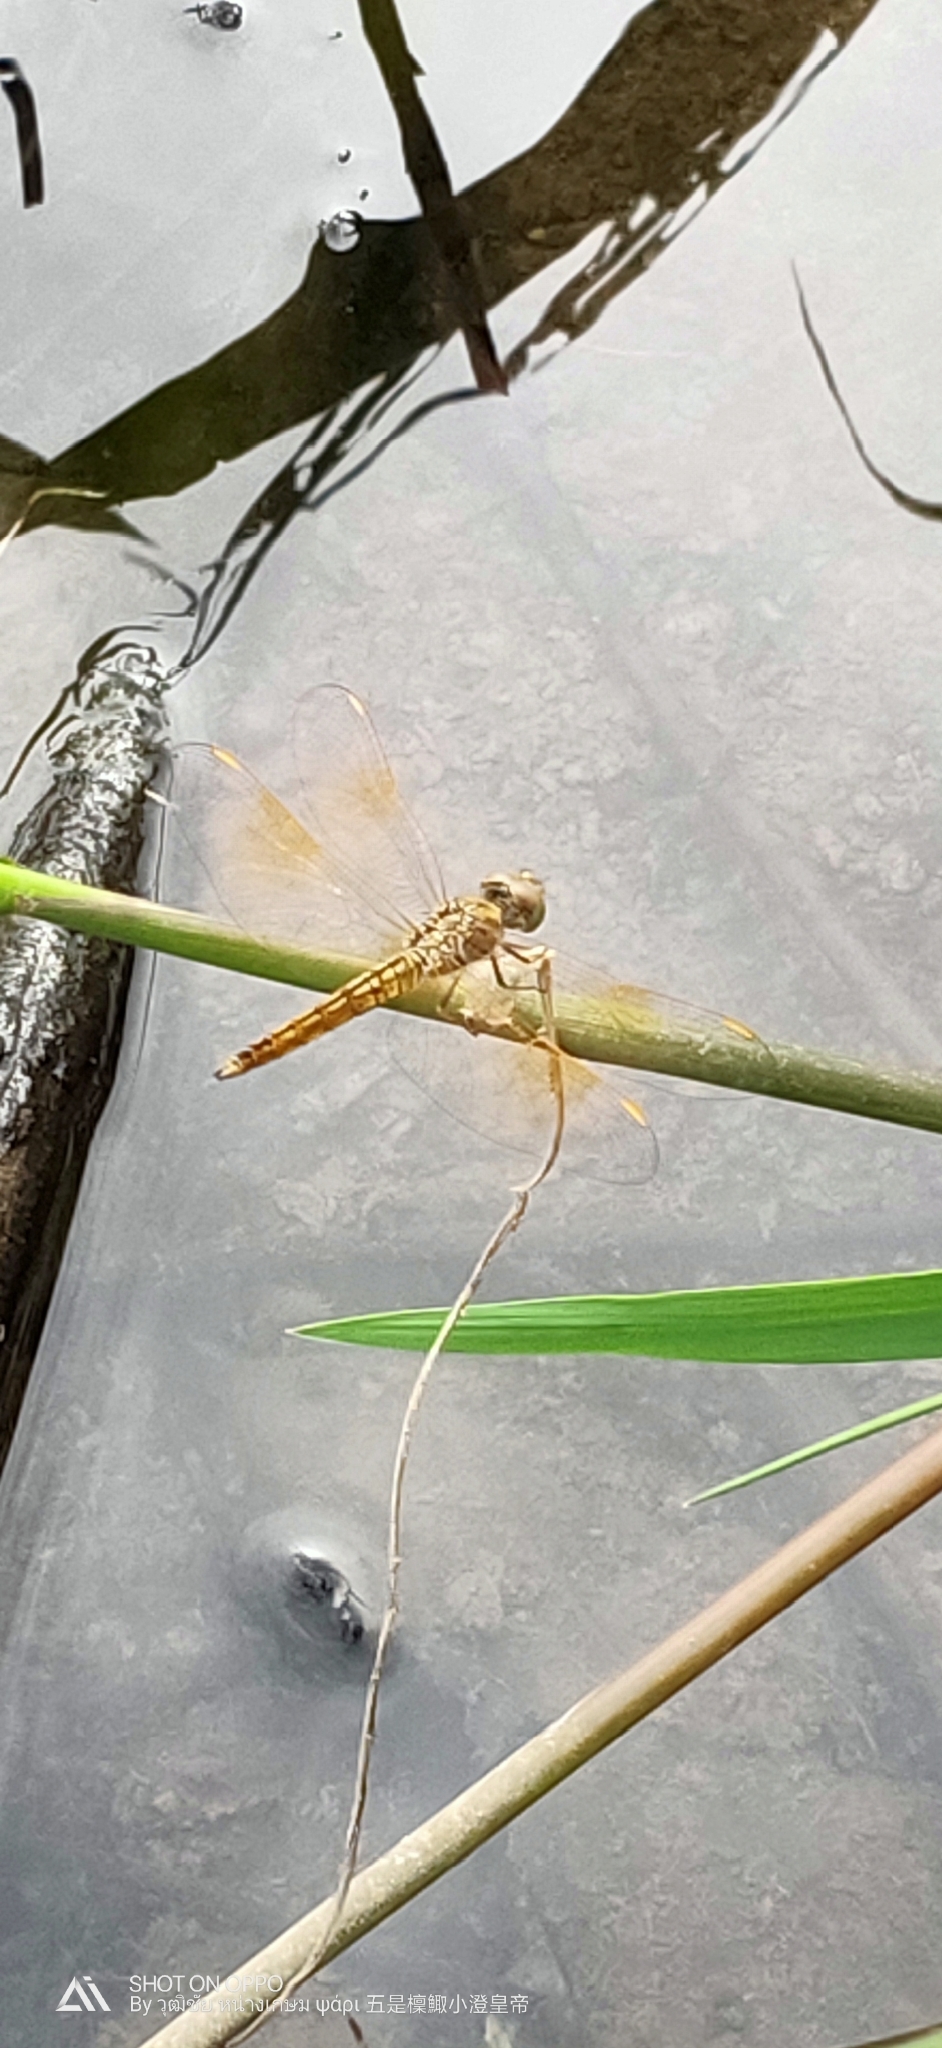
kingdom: Animalia
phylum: Arthropoda
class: Insecta
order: Odonata
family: Libellulidae
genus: Brachythemis
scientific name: Brachythemis contaminata
